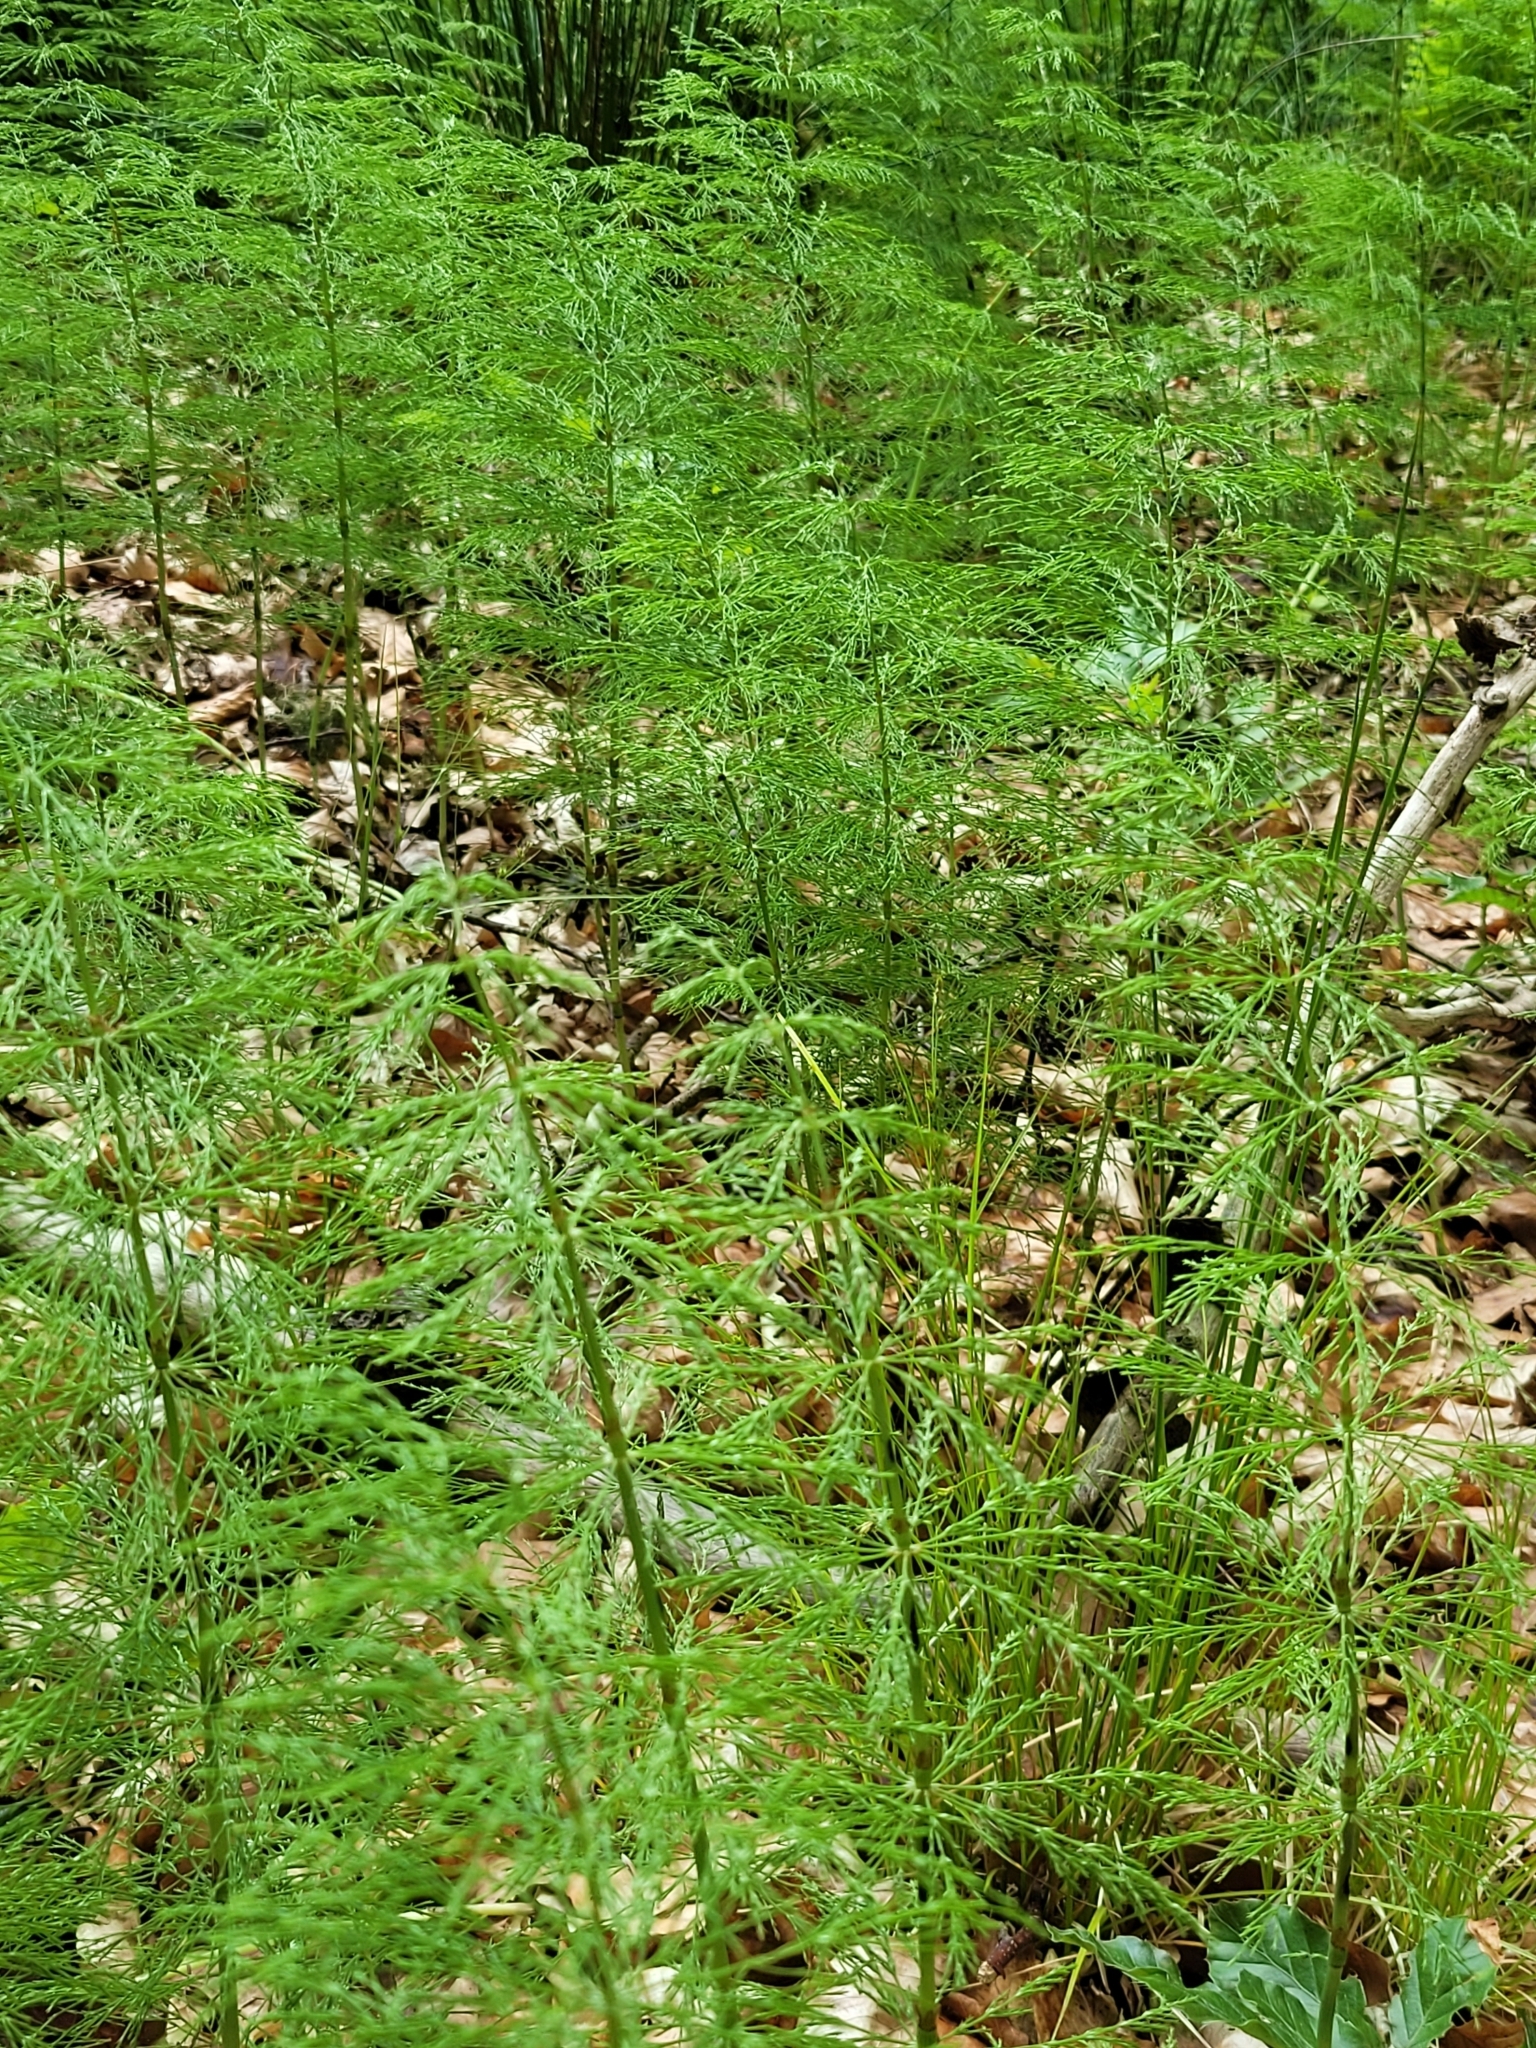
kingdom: Plantae
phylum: Tracheophyta
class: Polypodiopsida
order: Equisetales
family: Equisetaceae
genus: Equisetum
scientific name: Equisetum sylvaticum
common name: Wood horsetail
